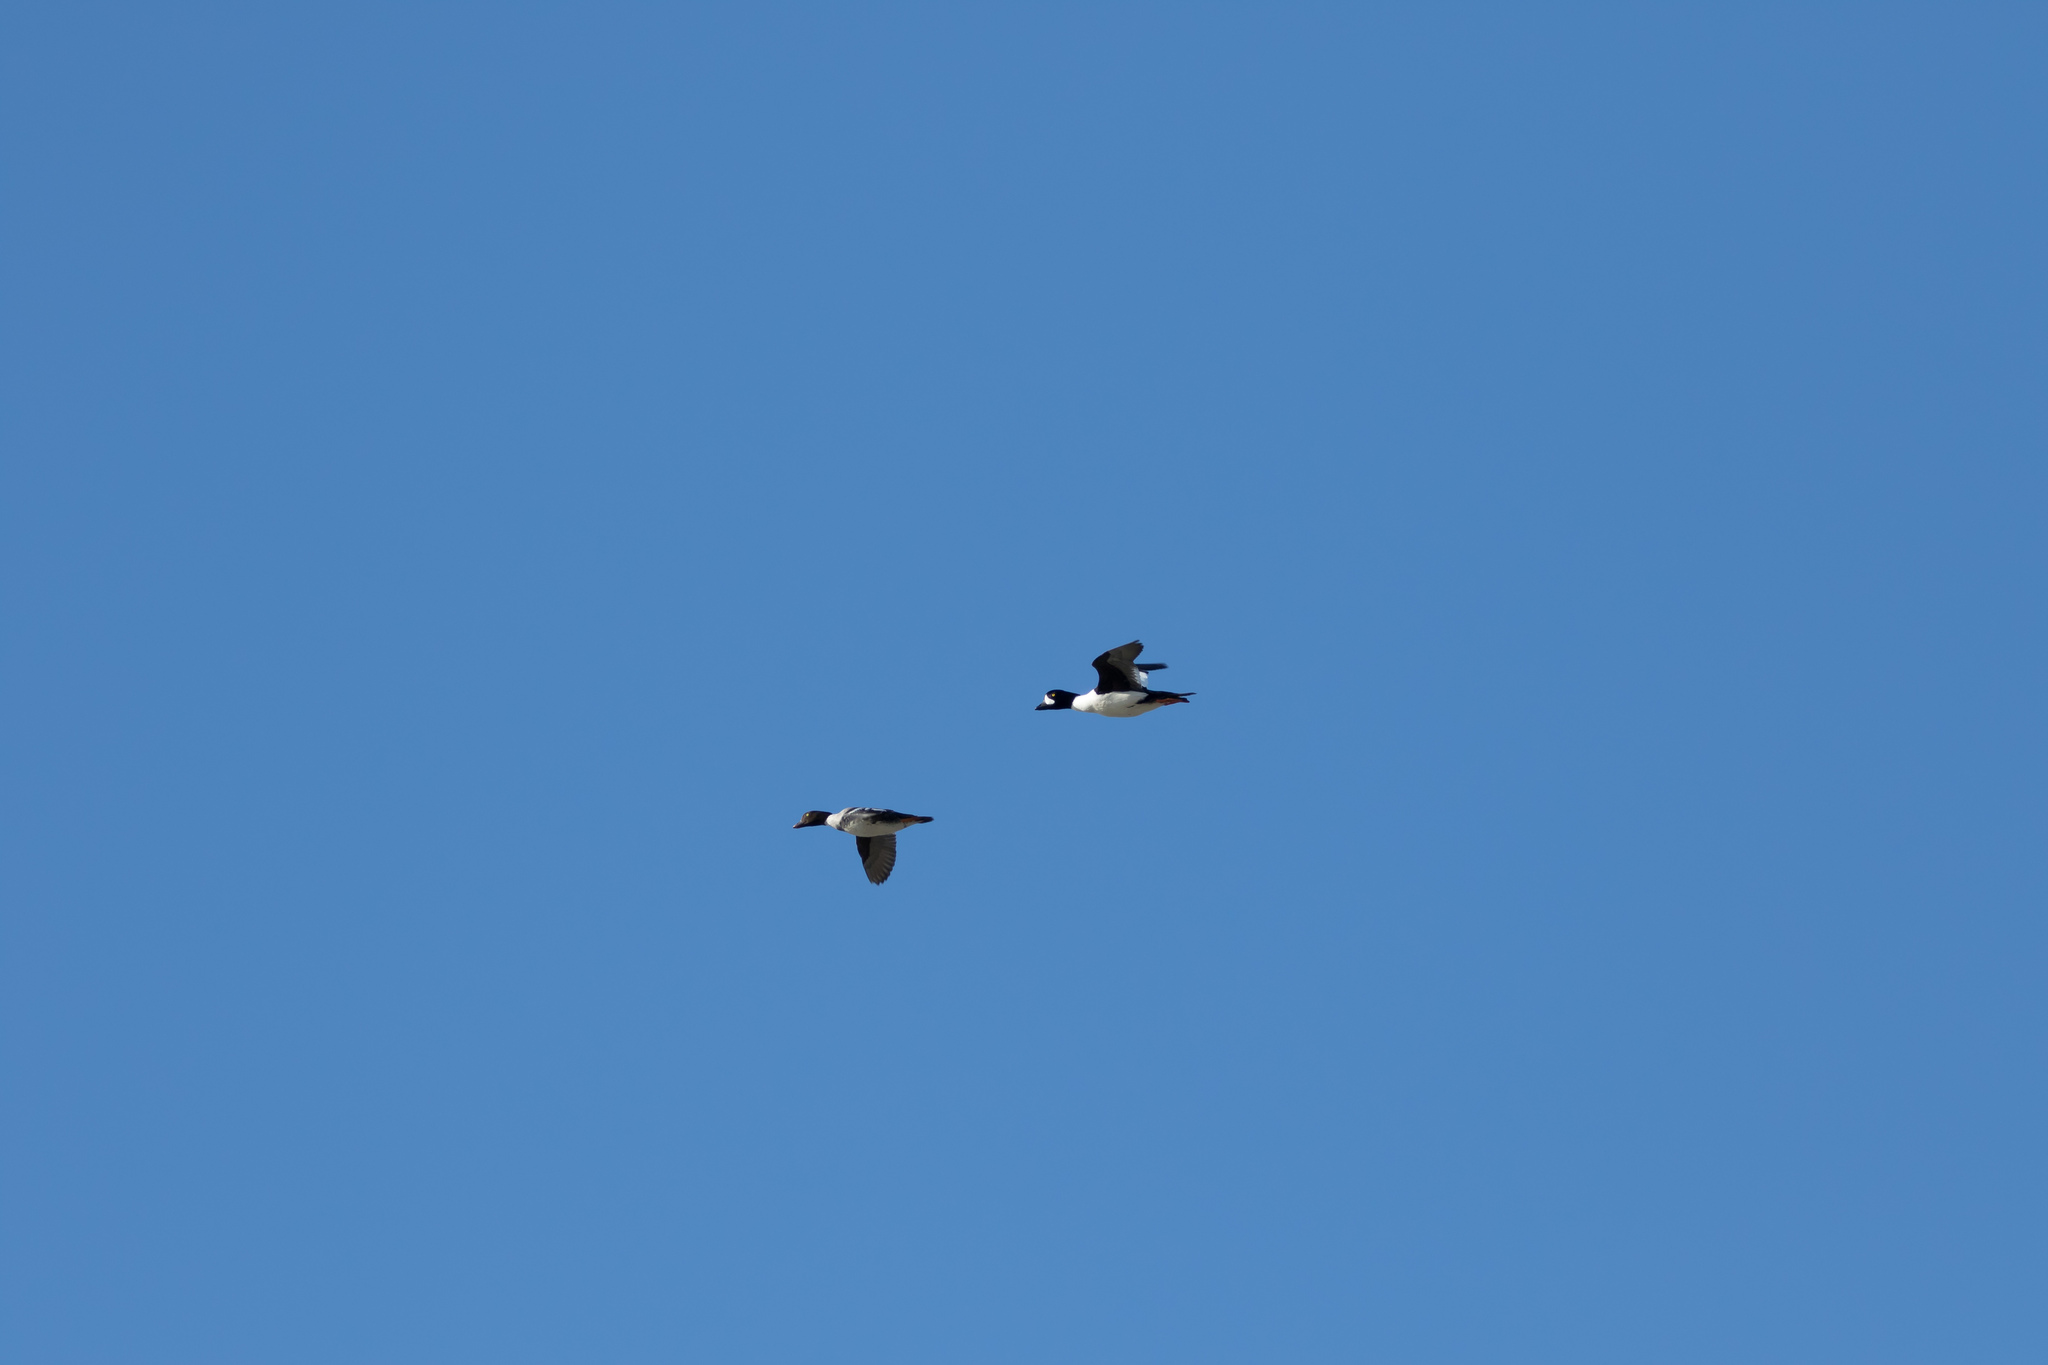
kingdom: Animalia
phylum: Chordata
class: Aves
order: Anseriformes
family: Anatidae
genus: Bucephala
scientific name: Bucephala islandica
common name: Barrow's goldeneye
